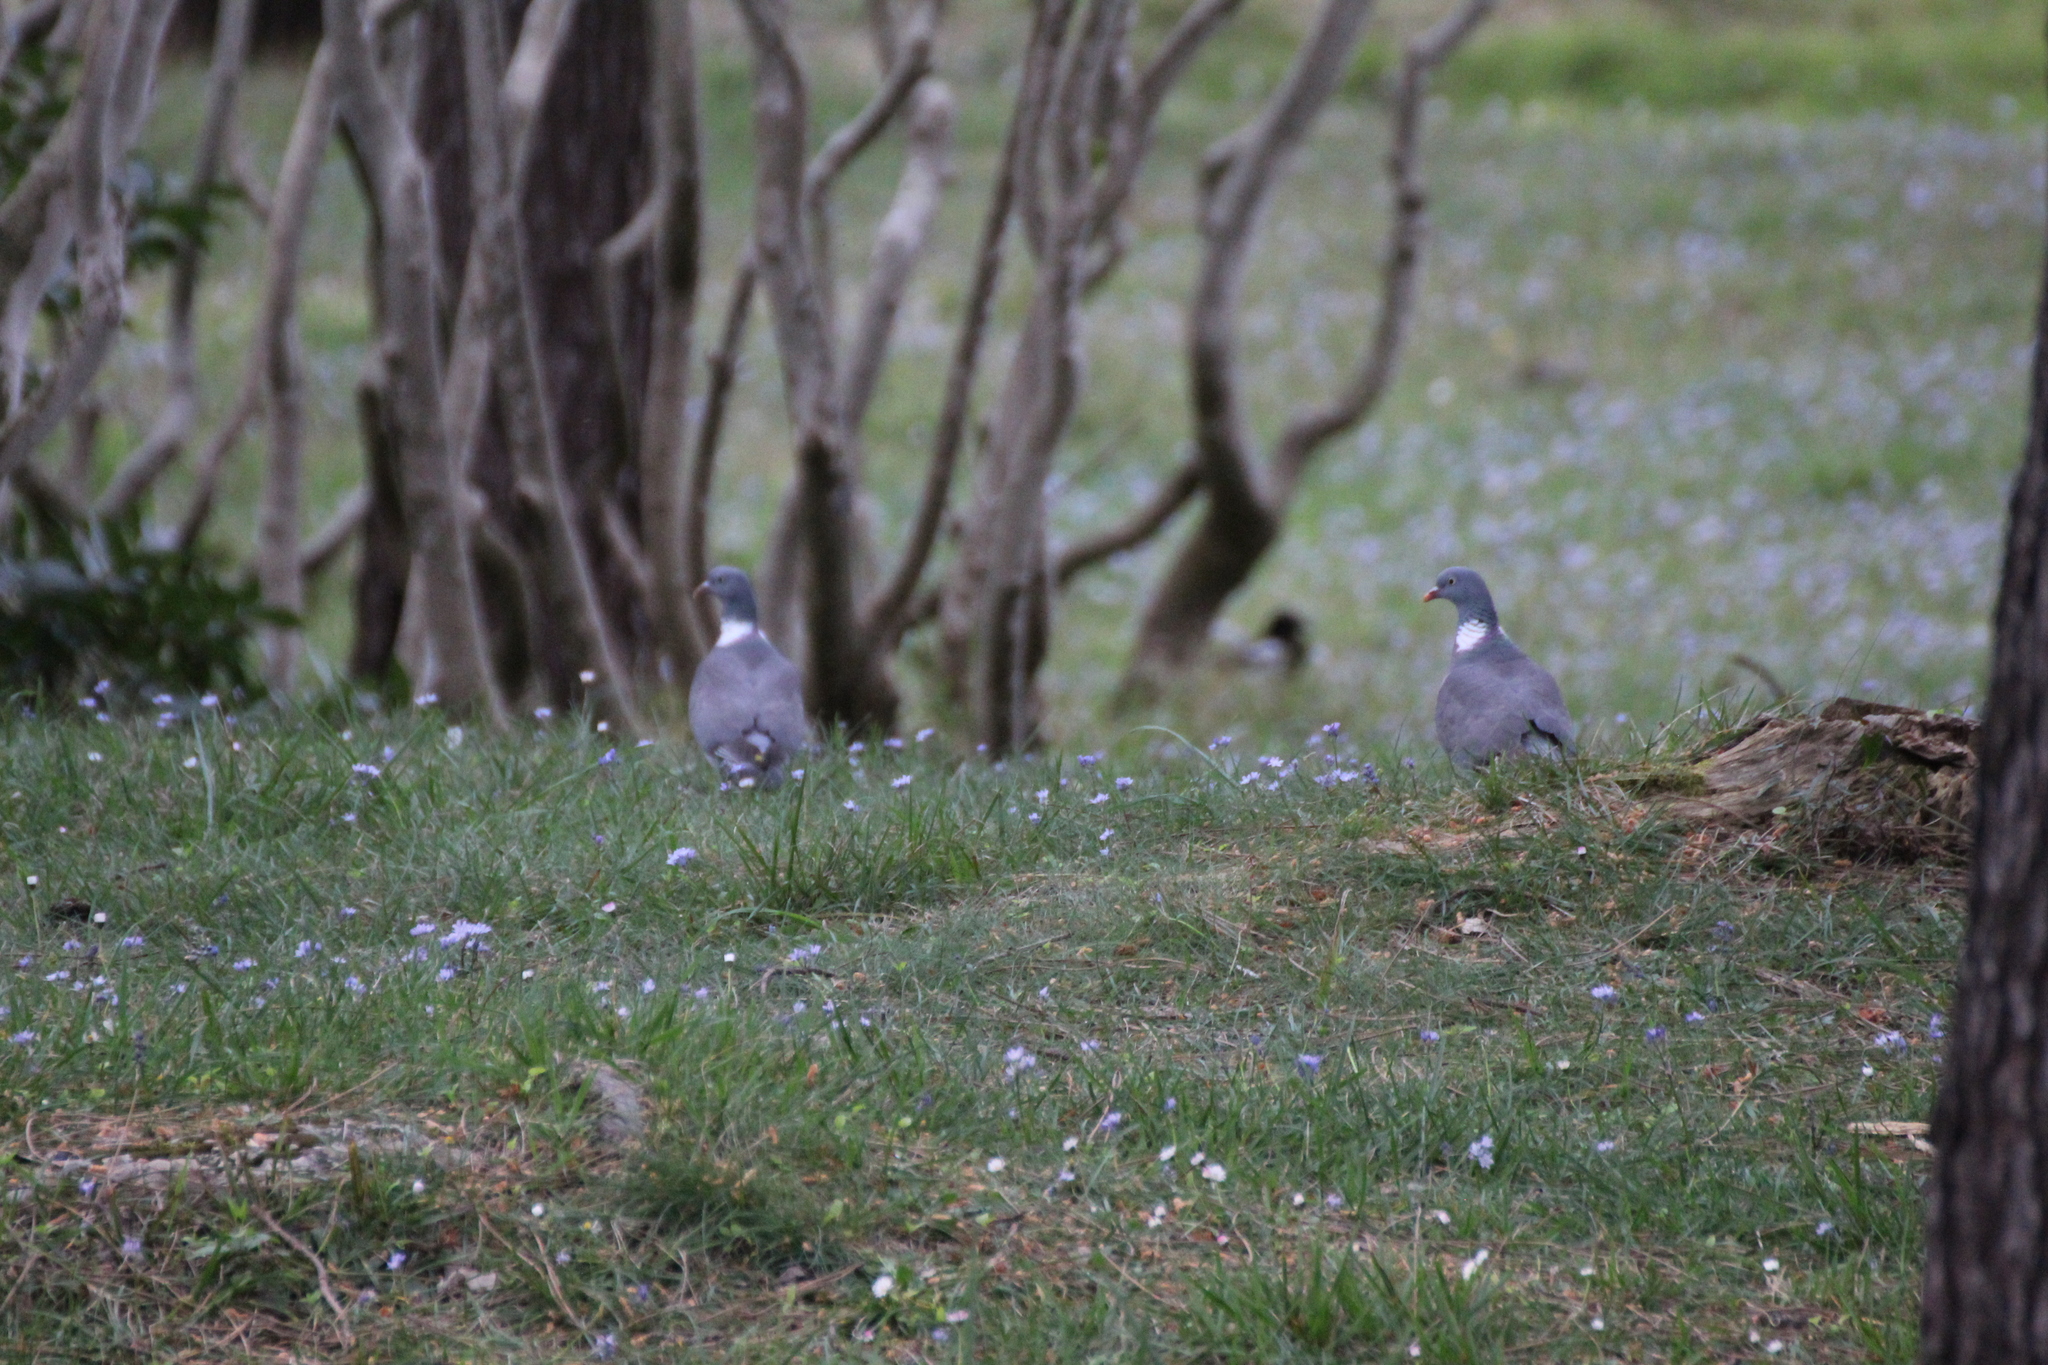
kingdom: Animalia
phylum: Chordata
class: Aves
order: Columbiformes
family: Columbidae
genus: Columba
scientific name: Columba palumbus
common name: Common wood pigeon
